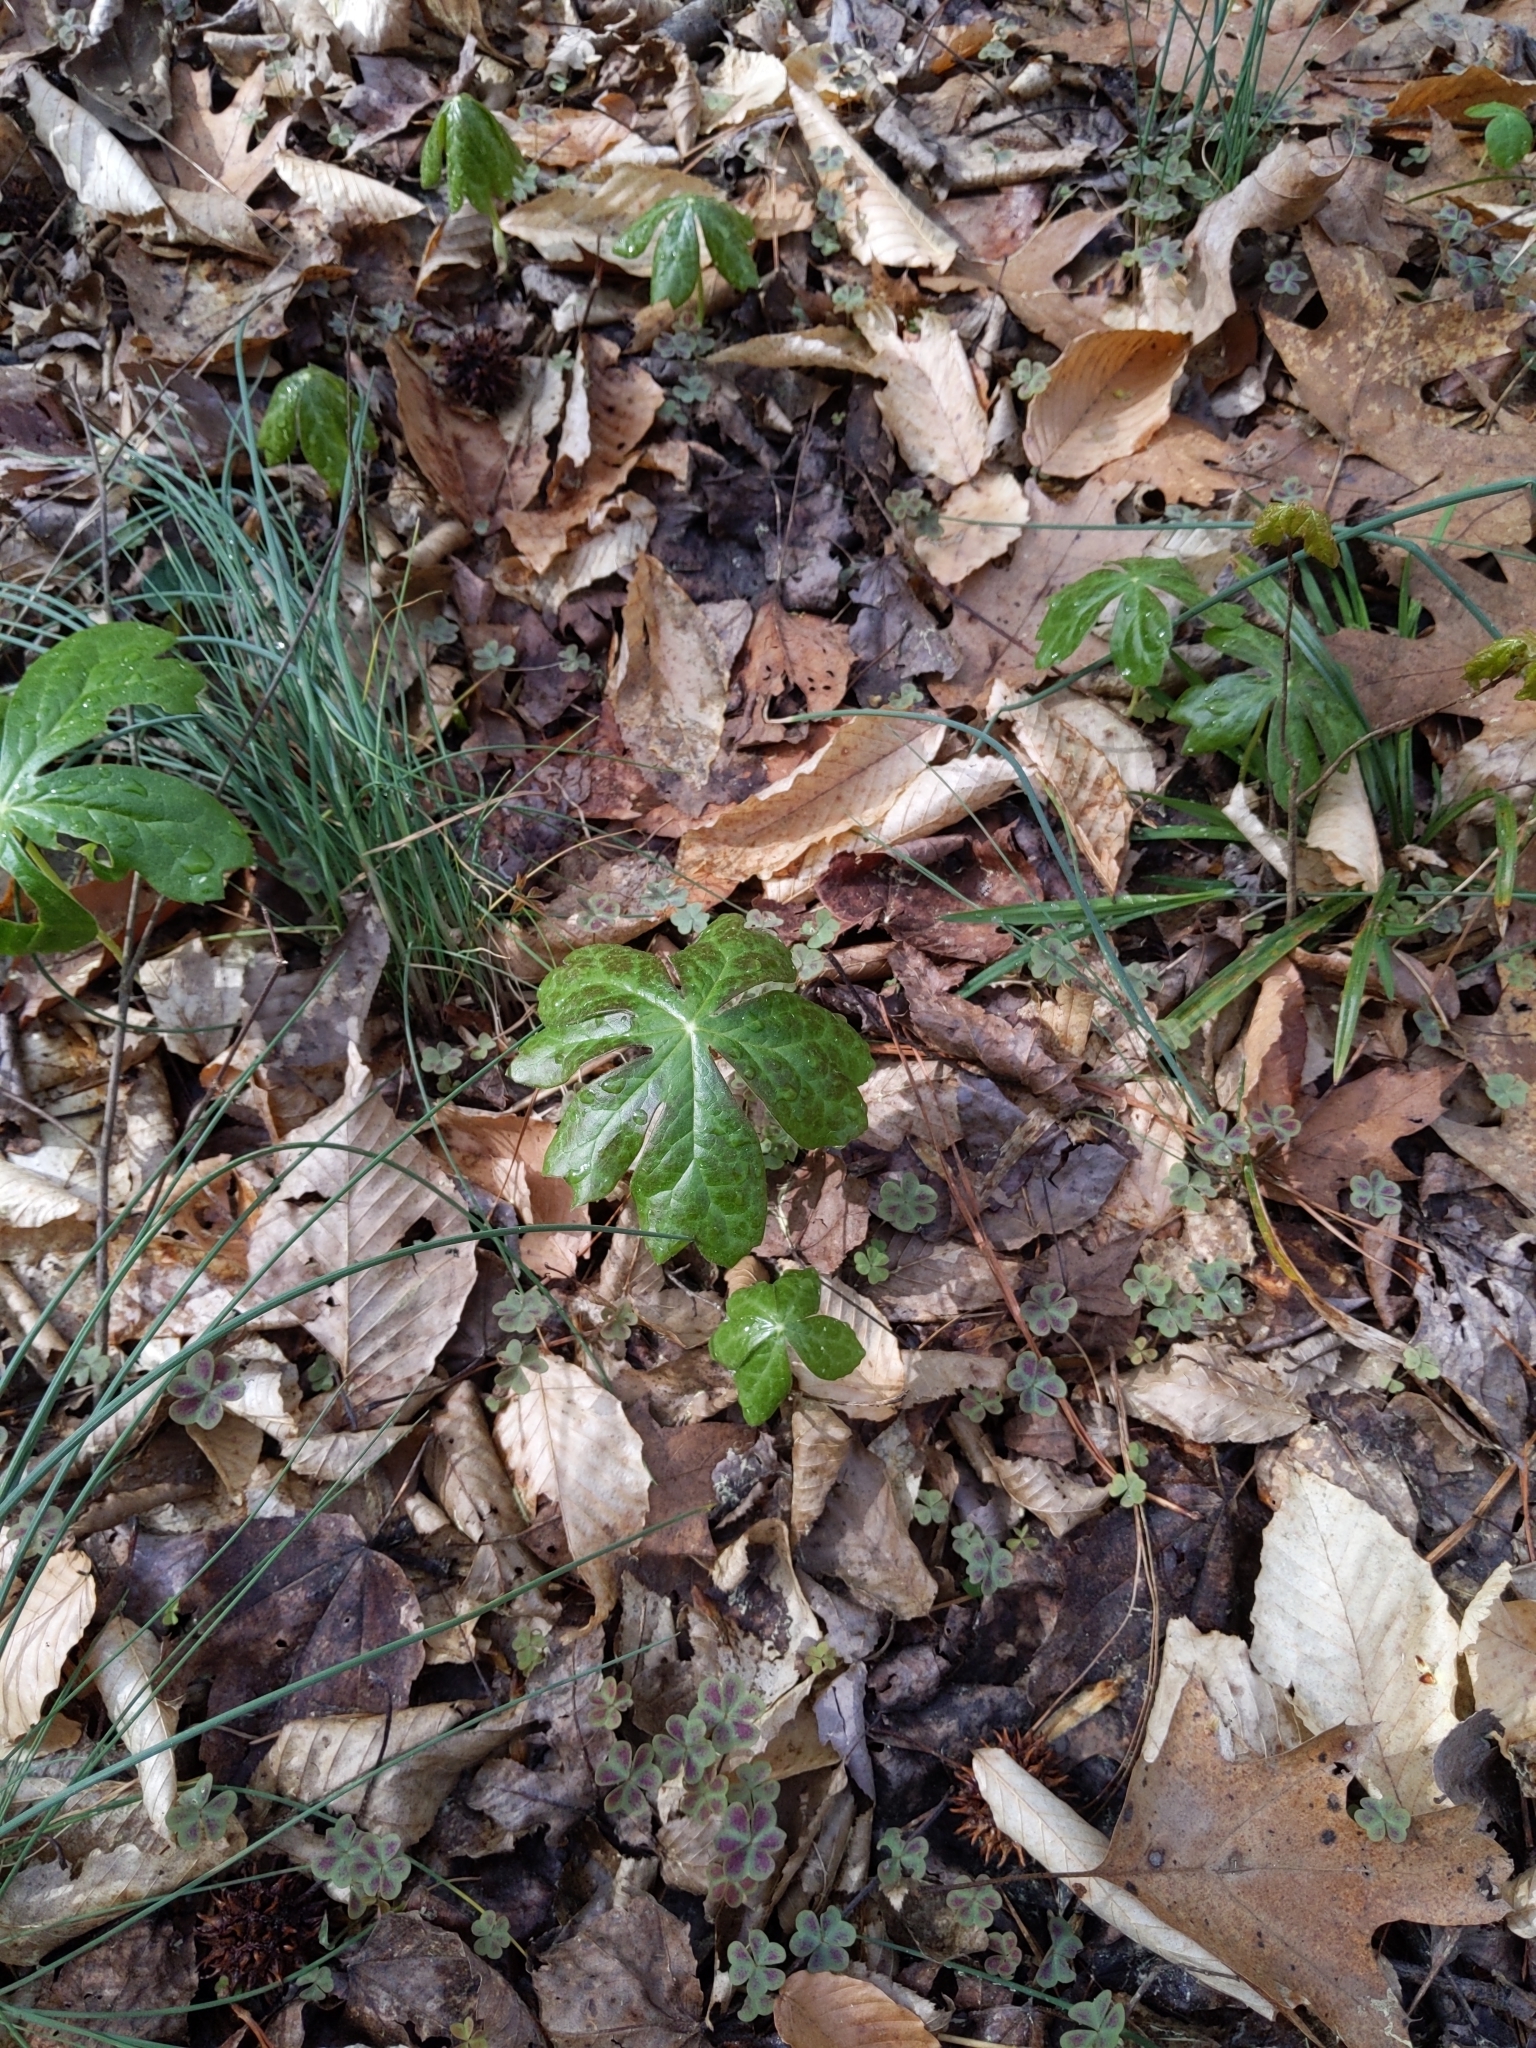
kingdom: Plantae
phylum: Tracheophyta
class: Magnoliopsida
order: Ranunculales
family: Berberidaceae
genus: Podophyllum
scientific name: Podophyllum peltatum
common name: Wild mandrake
